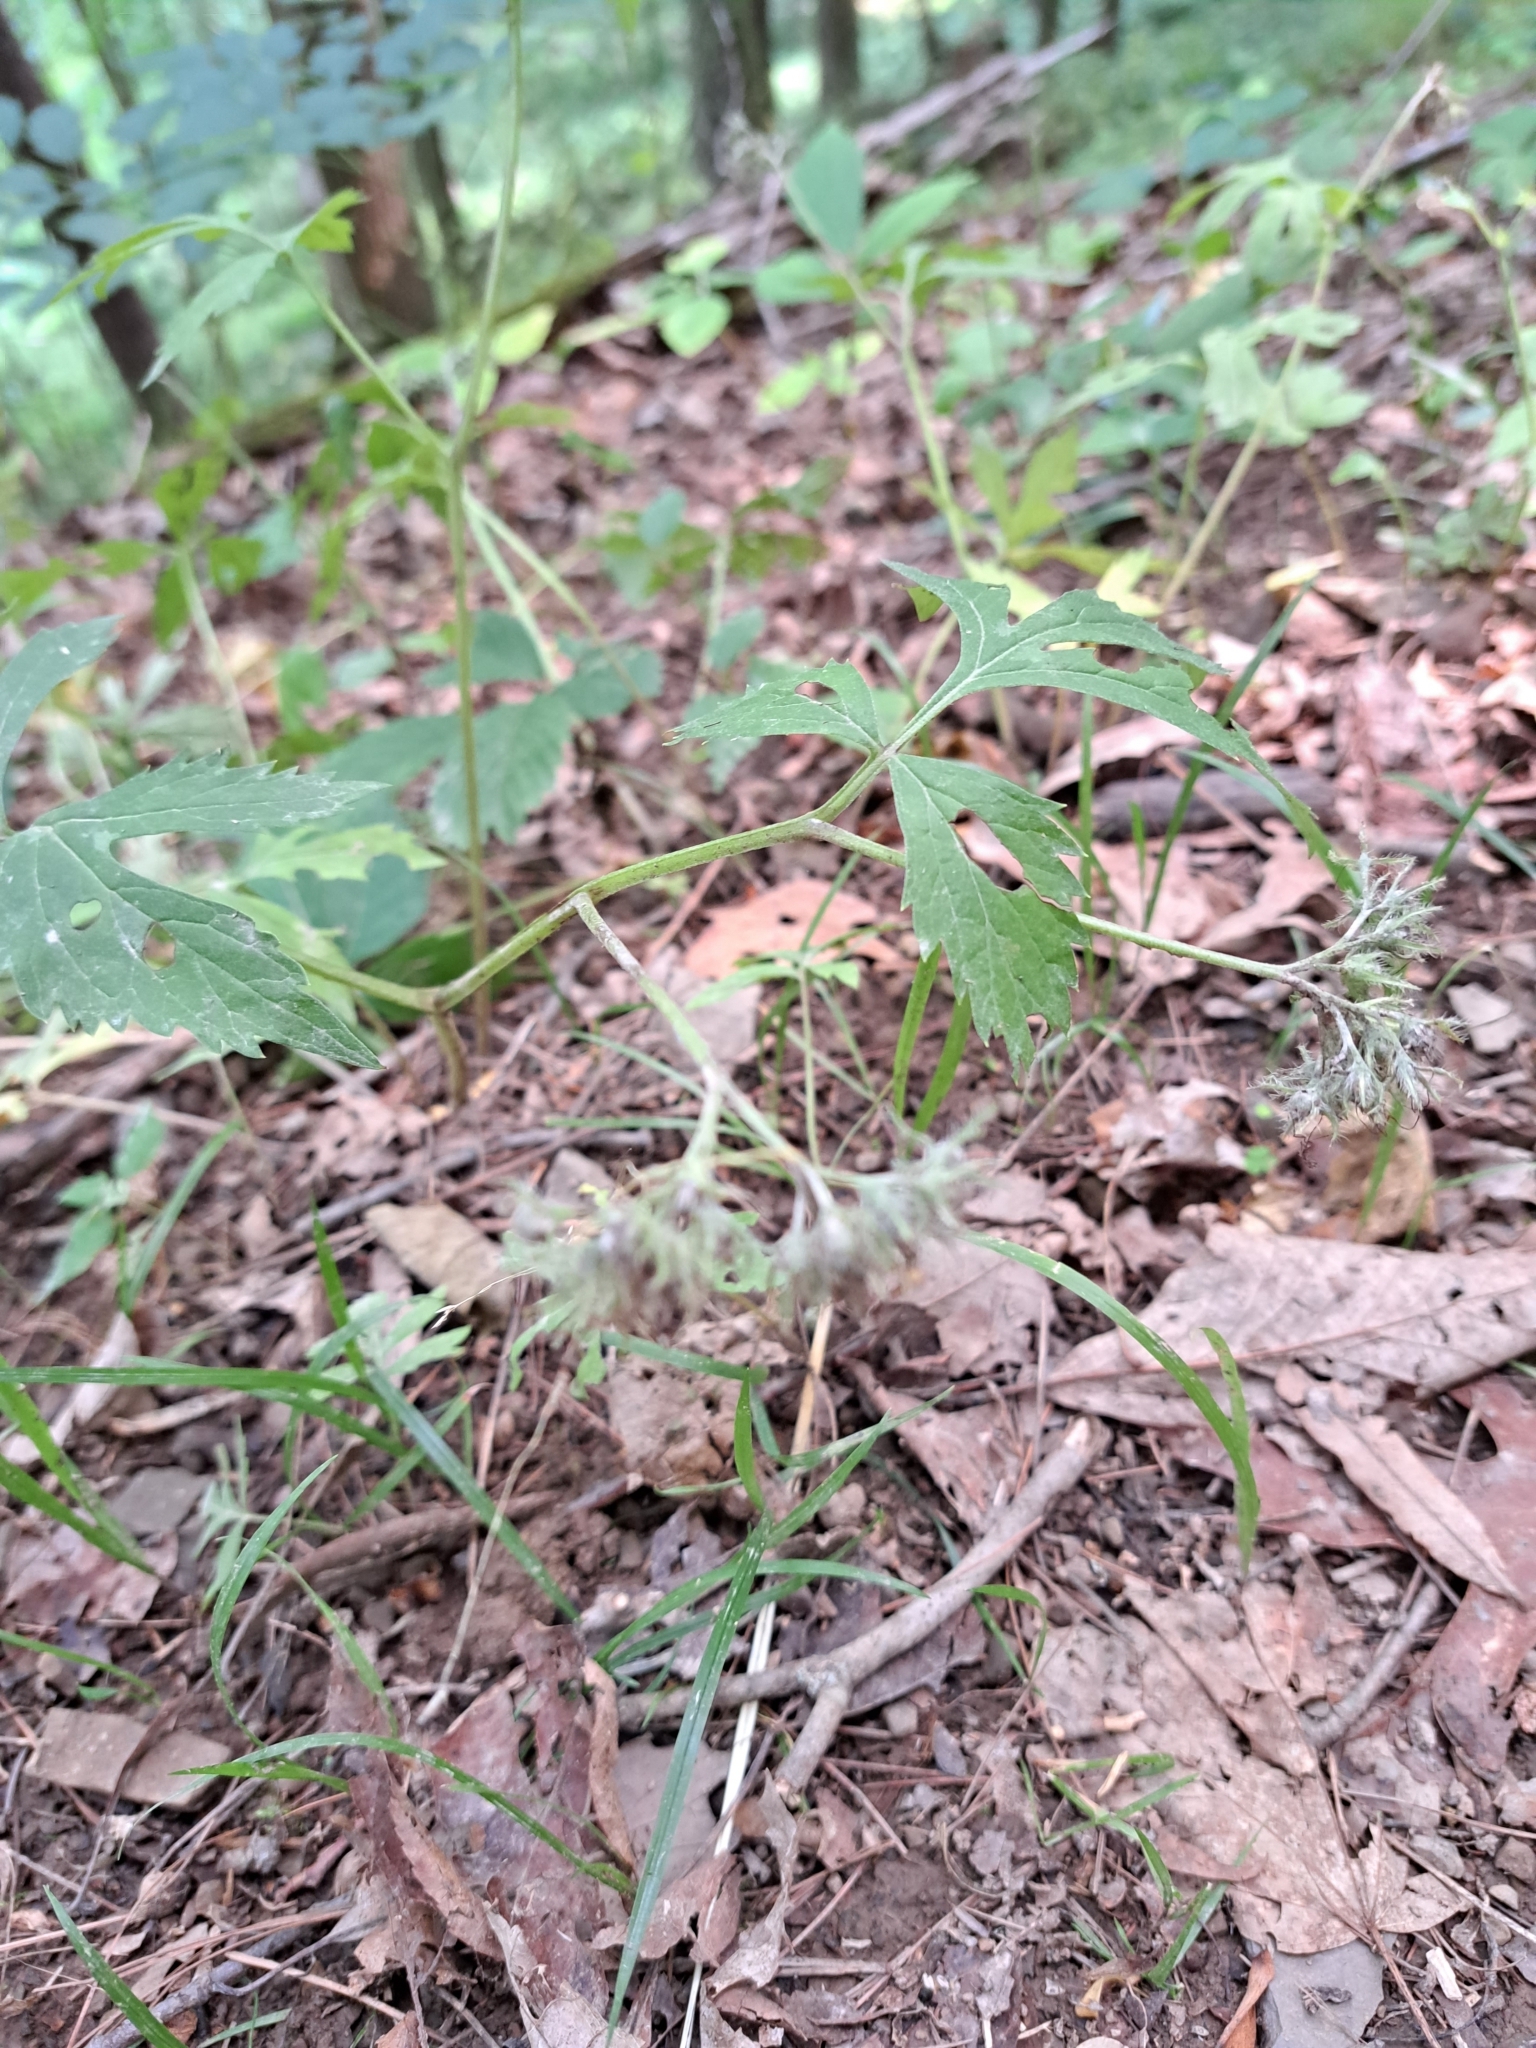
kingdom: Plantae
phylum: Tracheophyta
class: Magnoliopsida
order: Boraginales
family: Hydrophyllaceae
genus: Hydrophyllum
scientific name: Hydrophyllum virginianum
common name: Virginia waterleaf
